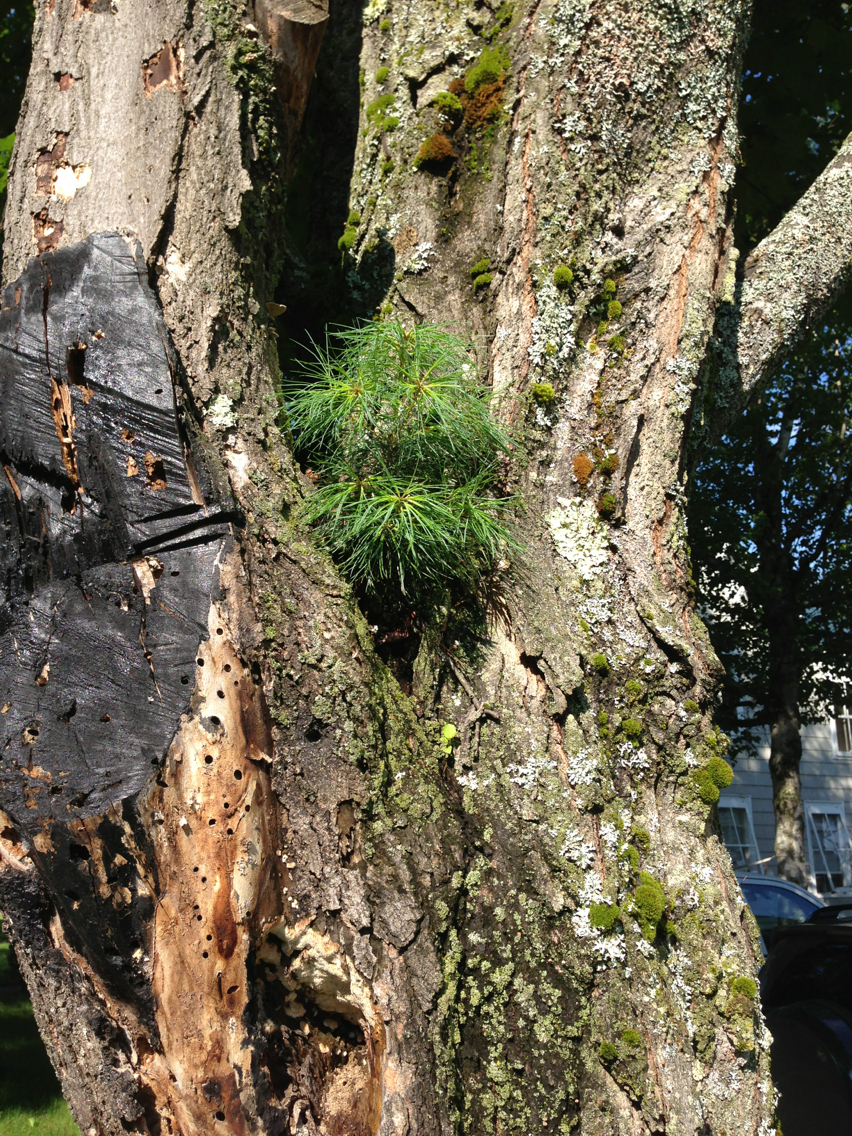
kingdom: Plantae
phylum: Tracheophyta
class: Pinopsida
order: Pinales
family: Pinaceae
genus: Pinus
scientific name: Pinus strobus
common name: Weymouth pine
